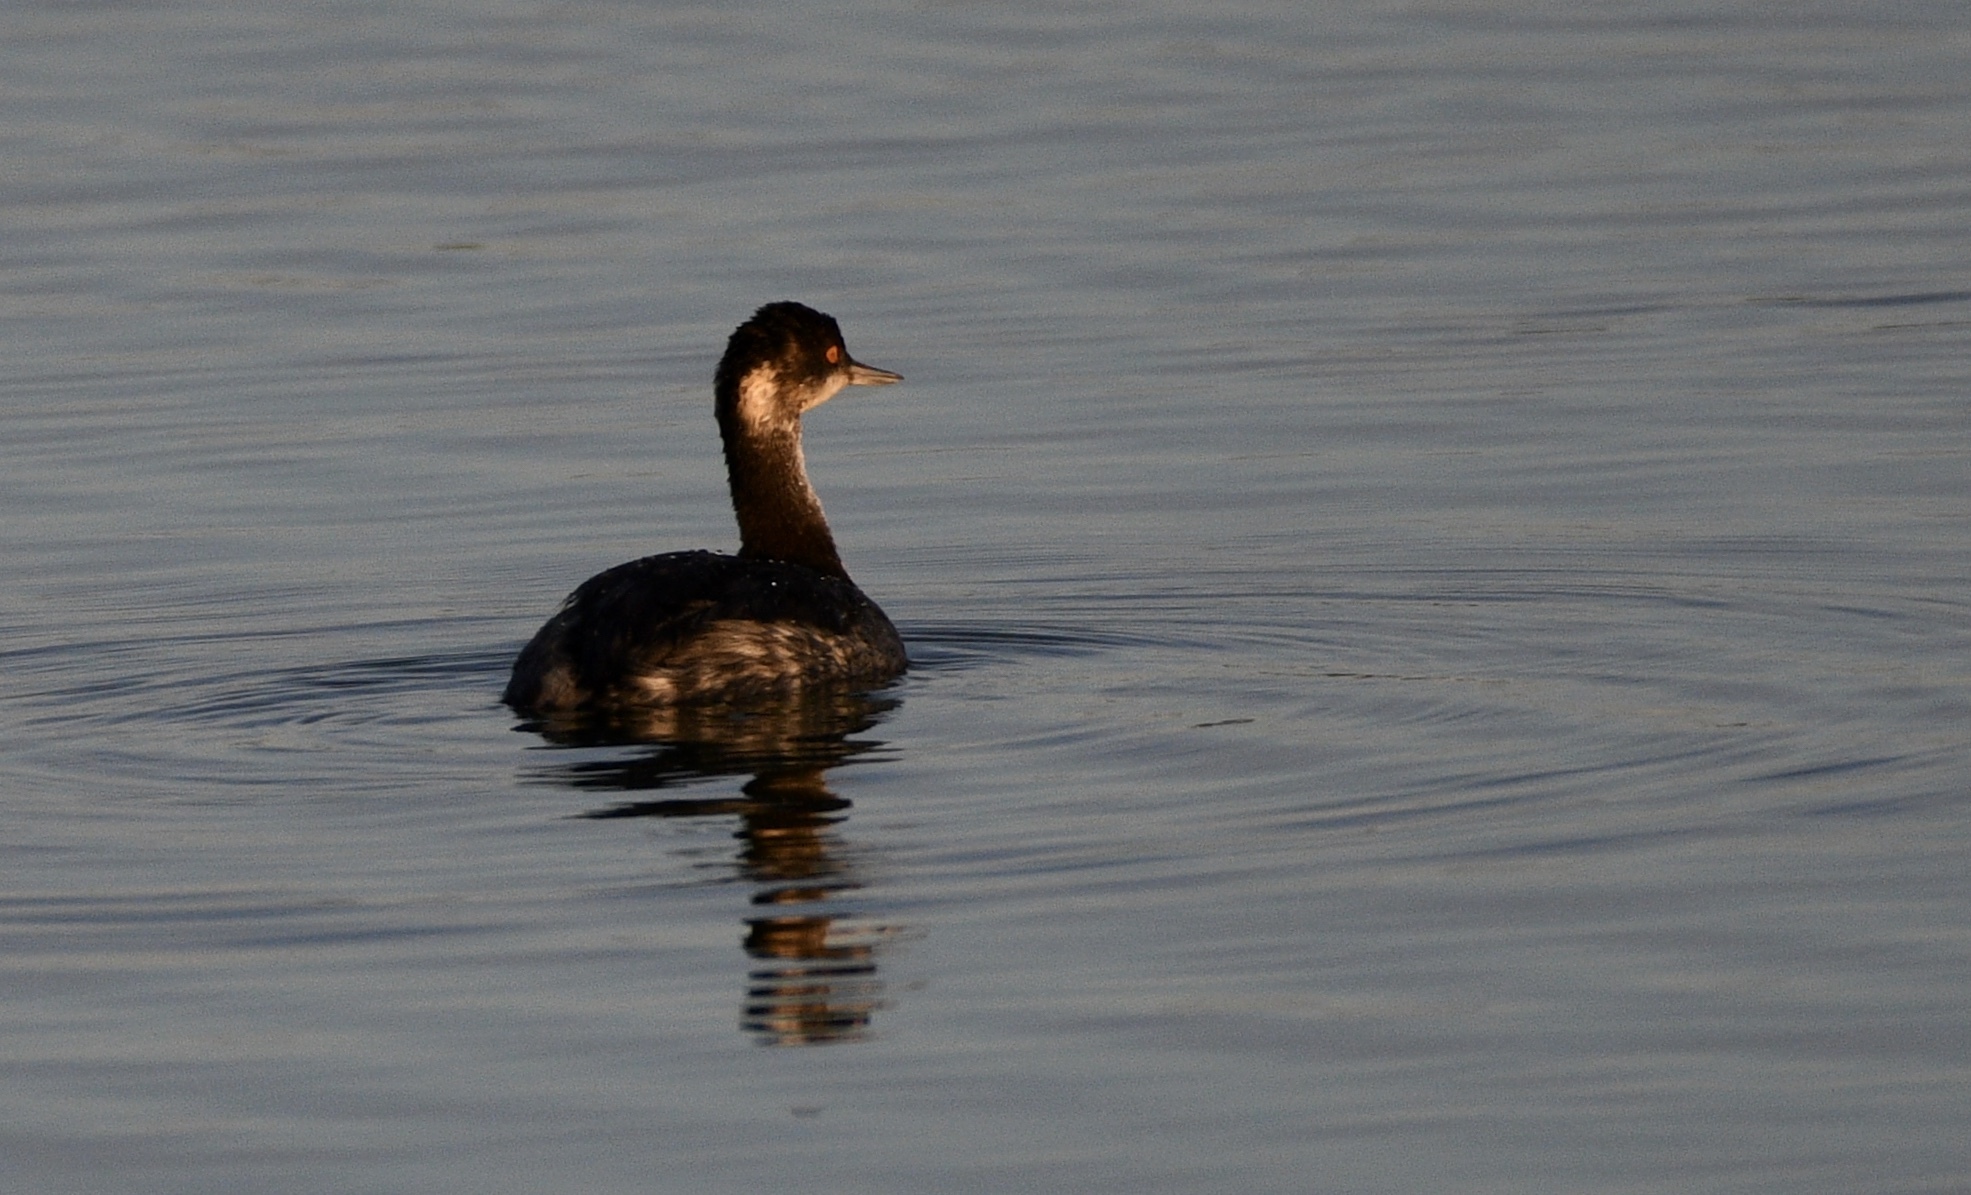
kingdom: Animalia
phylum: Chordata
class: Aves
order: Podicipediformes
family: Podicipedidae
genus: Podiceps
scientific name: Podiceps nigricollis
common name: Black-necked grebe
